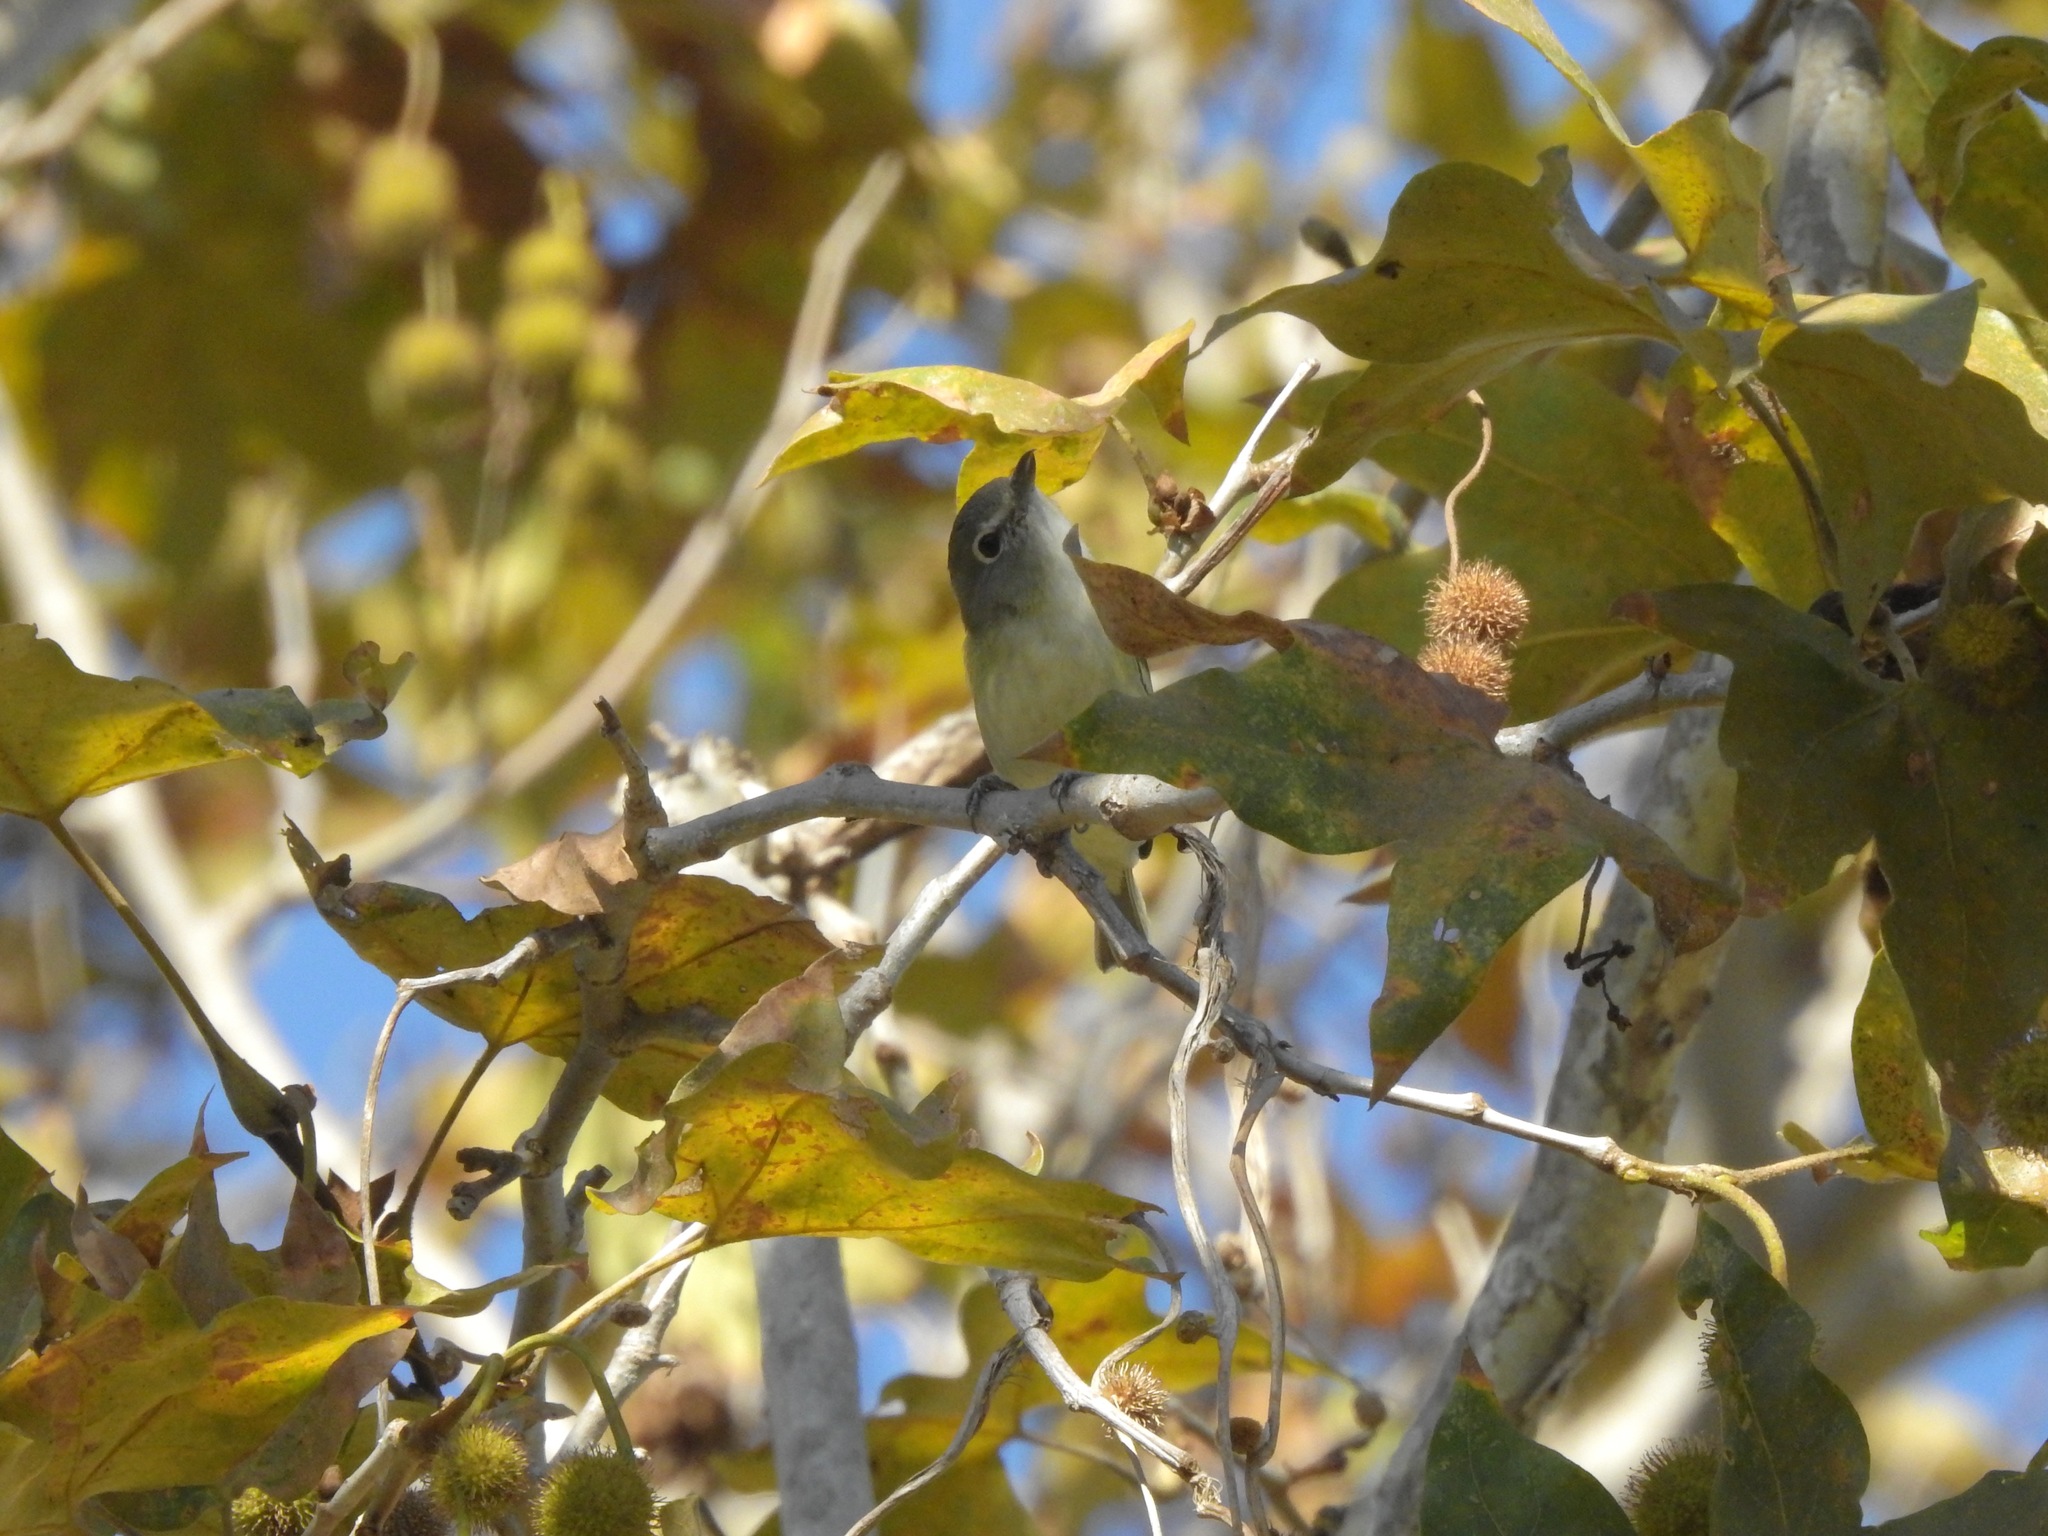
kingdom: Animalia
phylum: Chordata
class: Aves
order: Passeriformes
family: Vireonidae
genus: Vireo
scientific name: Vireo cassinii
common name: Cassin's vireo
